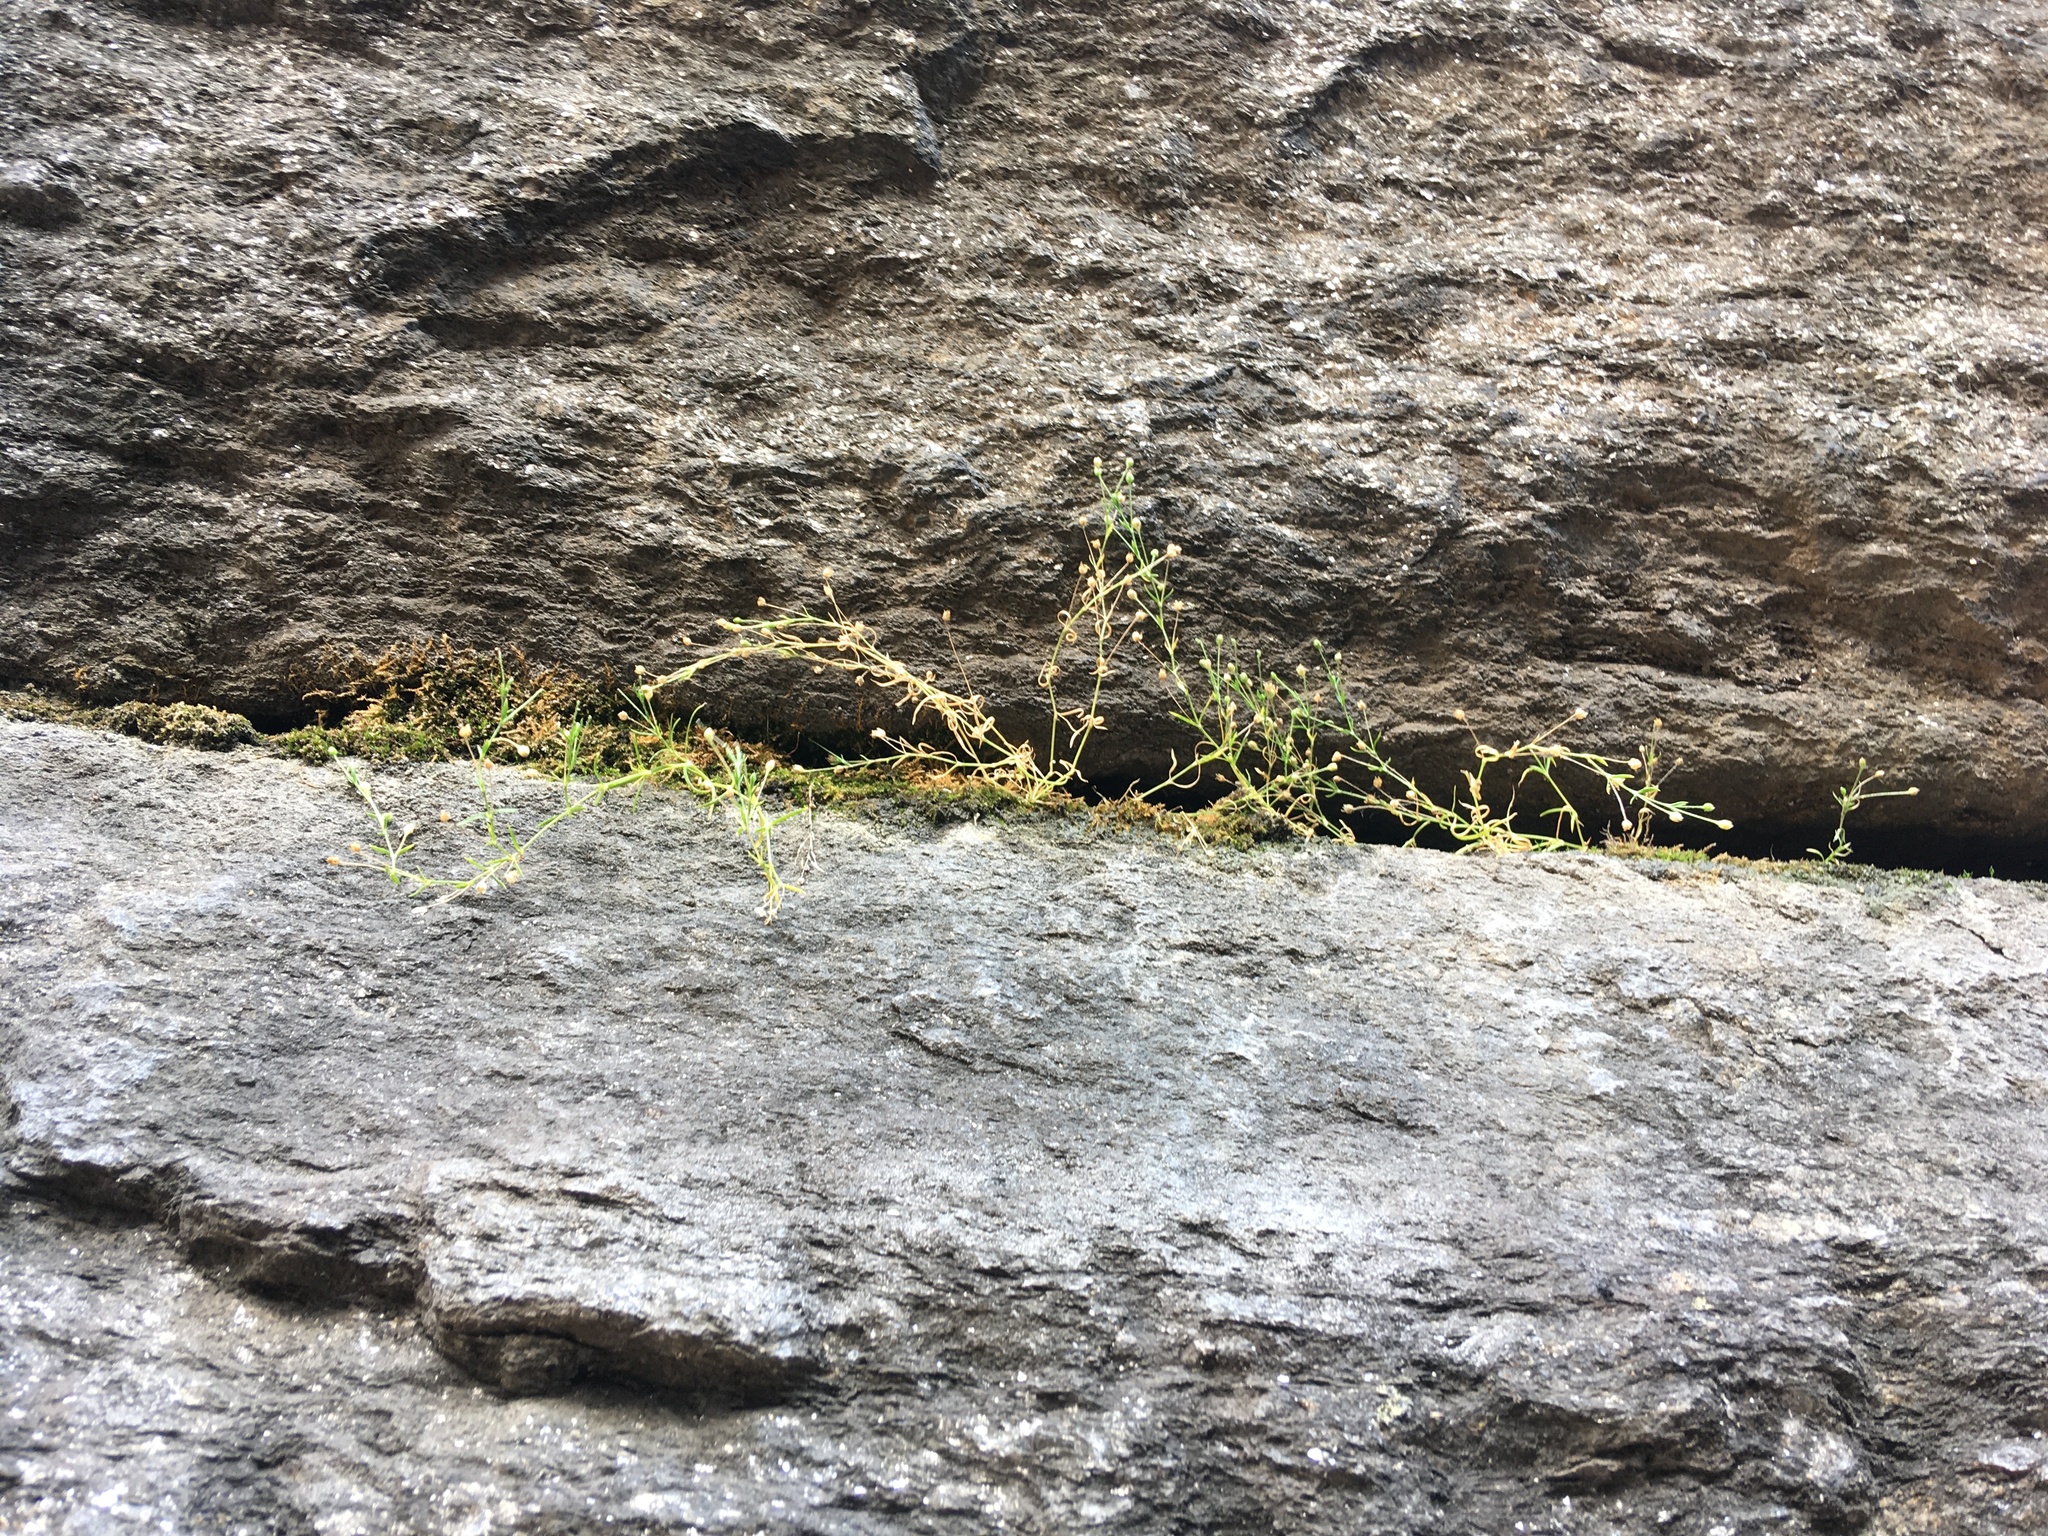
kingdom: Plantae
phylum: Tracheophyta
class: Magnoliopsida
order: Caryophyllales
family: Caryophyllaceae
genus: Sagina
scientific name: Sagina japonica
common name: Japanese pearlwort
